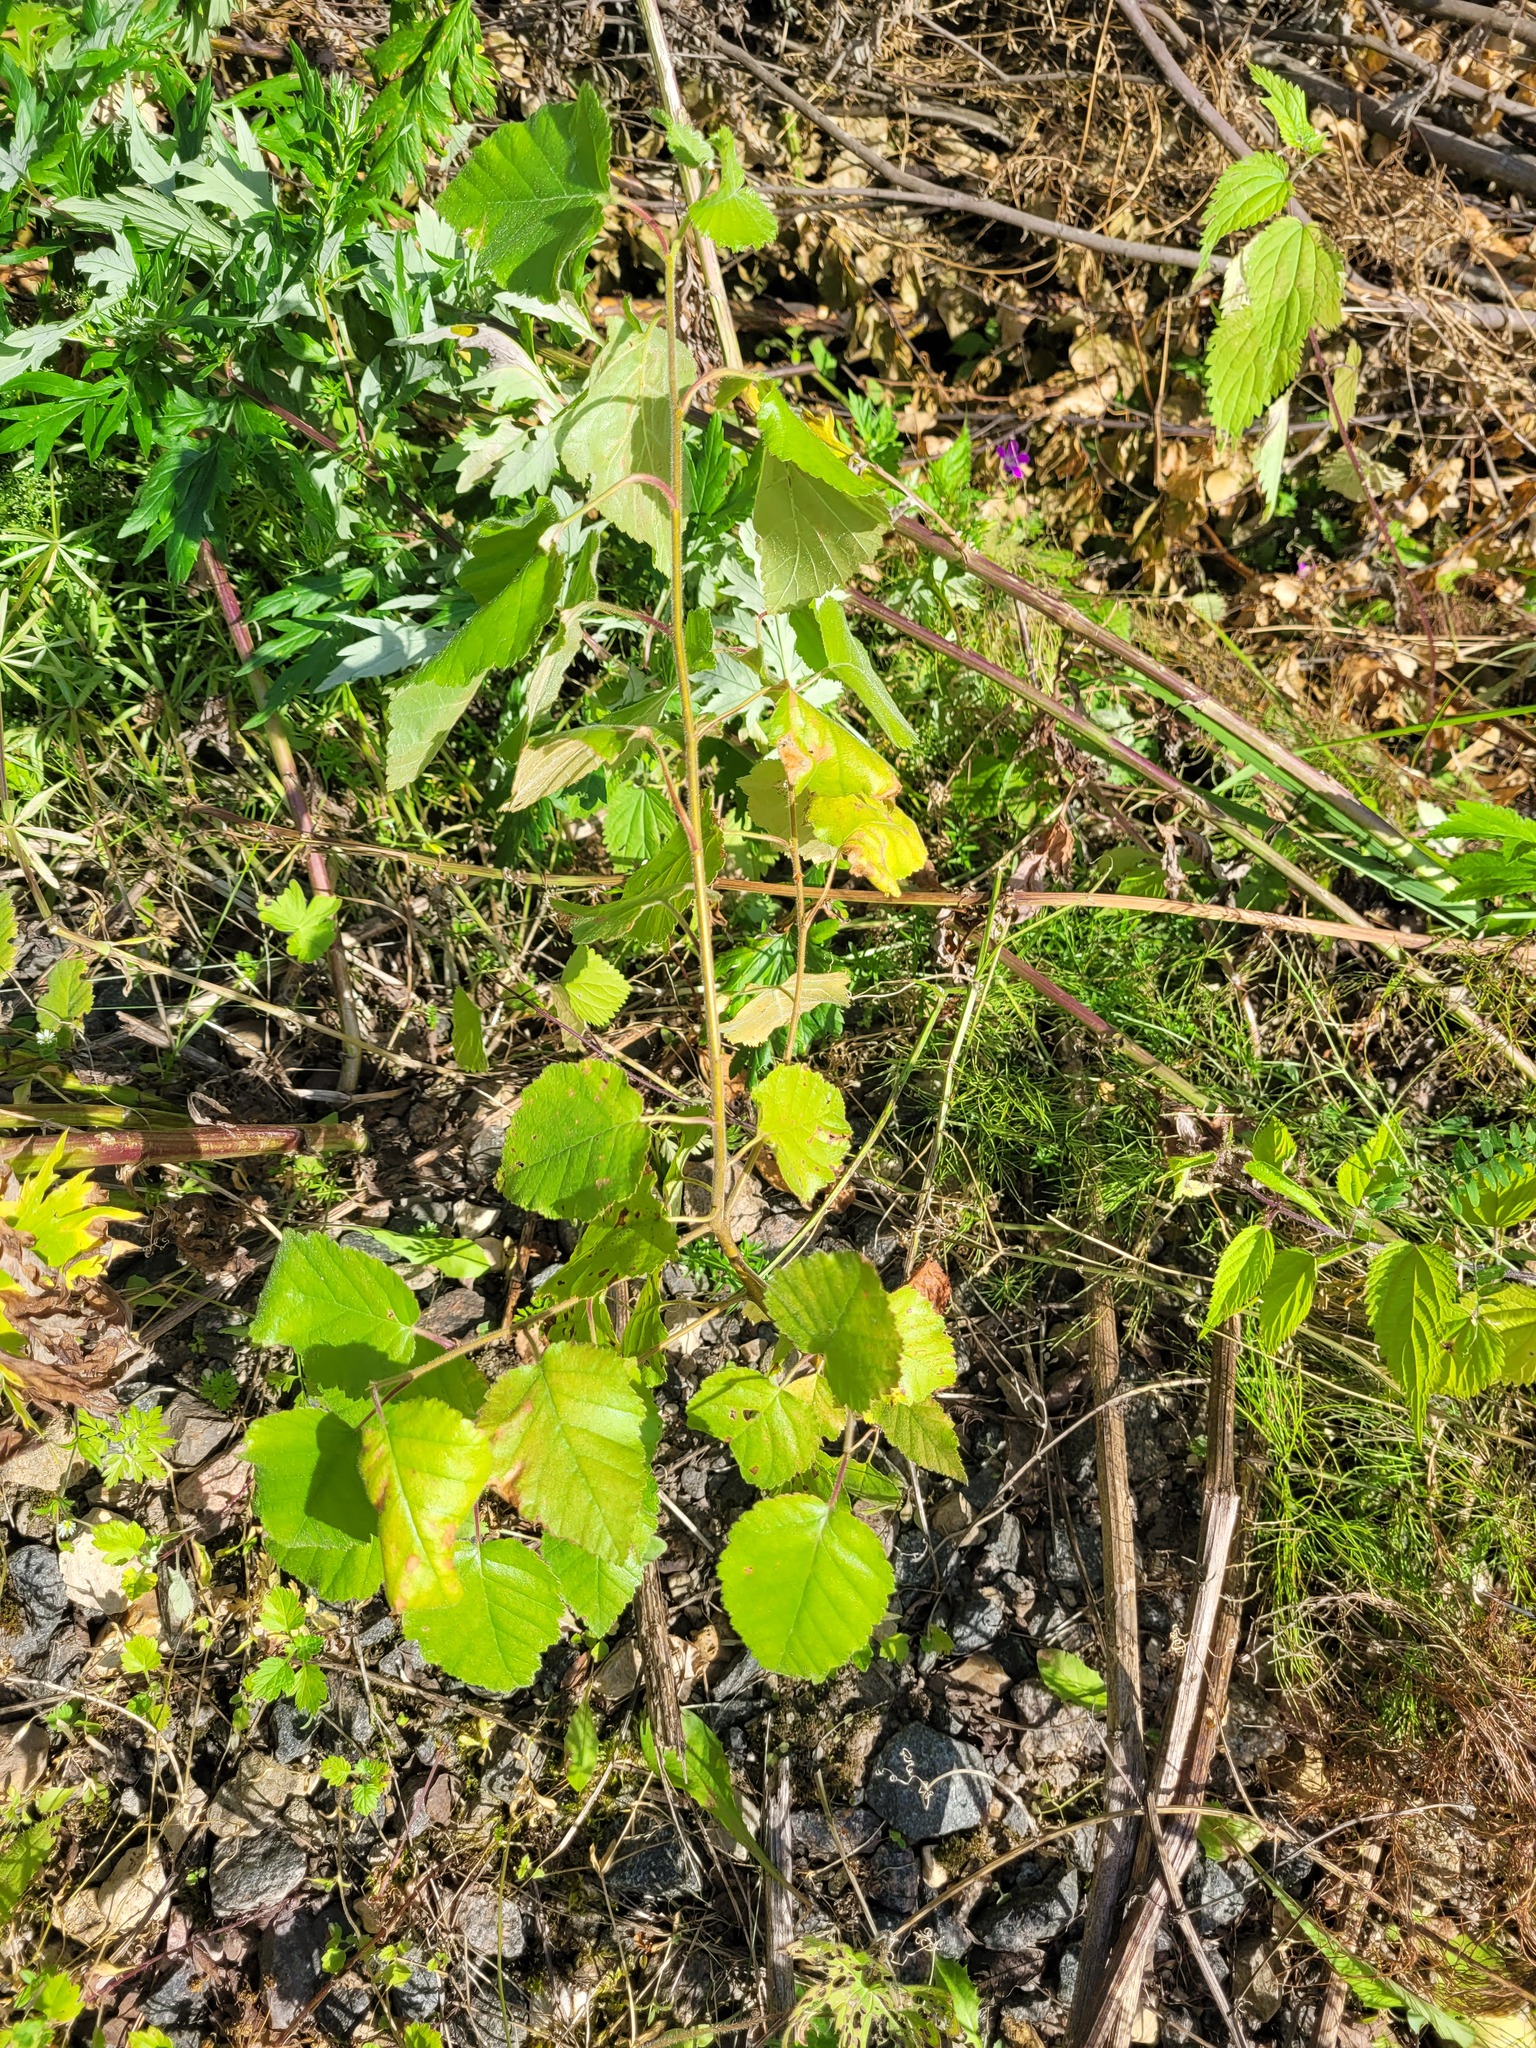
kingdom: Plantae
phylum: Tracheophyta
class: Magnoliopsida
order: Fagales
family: Betulaceae
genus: Betula
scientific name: Betula pubescens
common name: Downy birch
